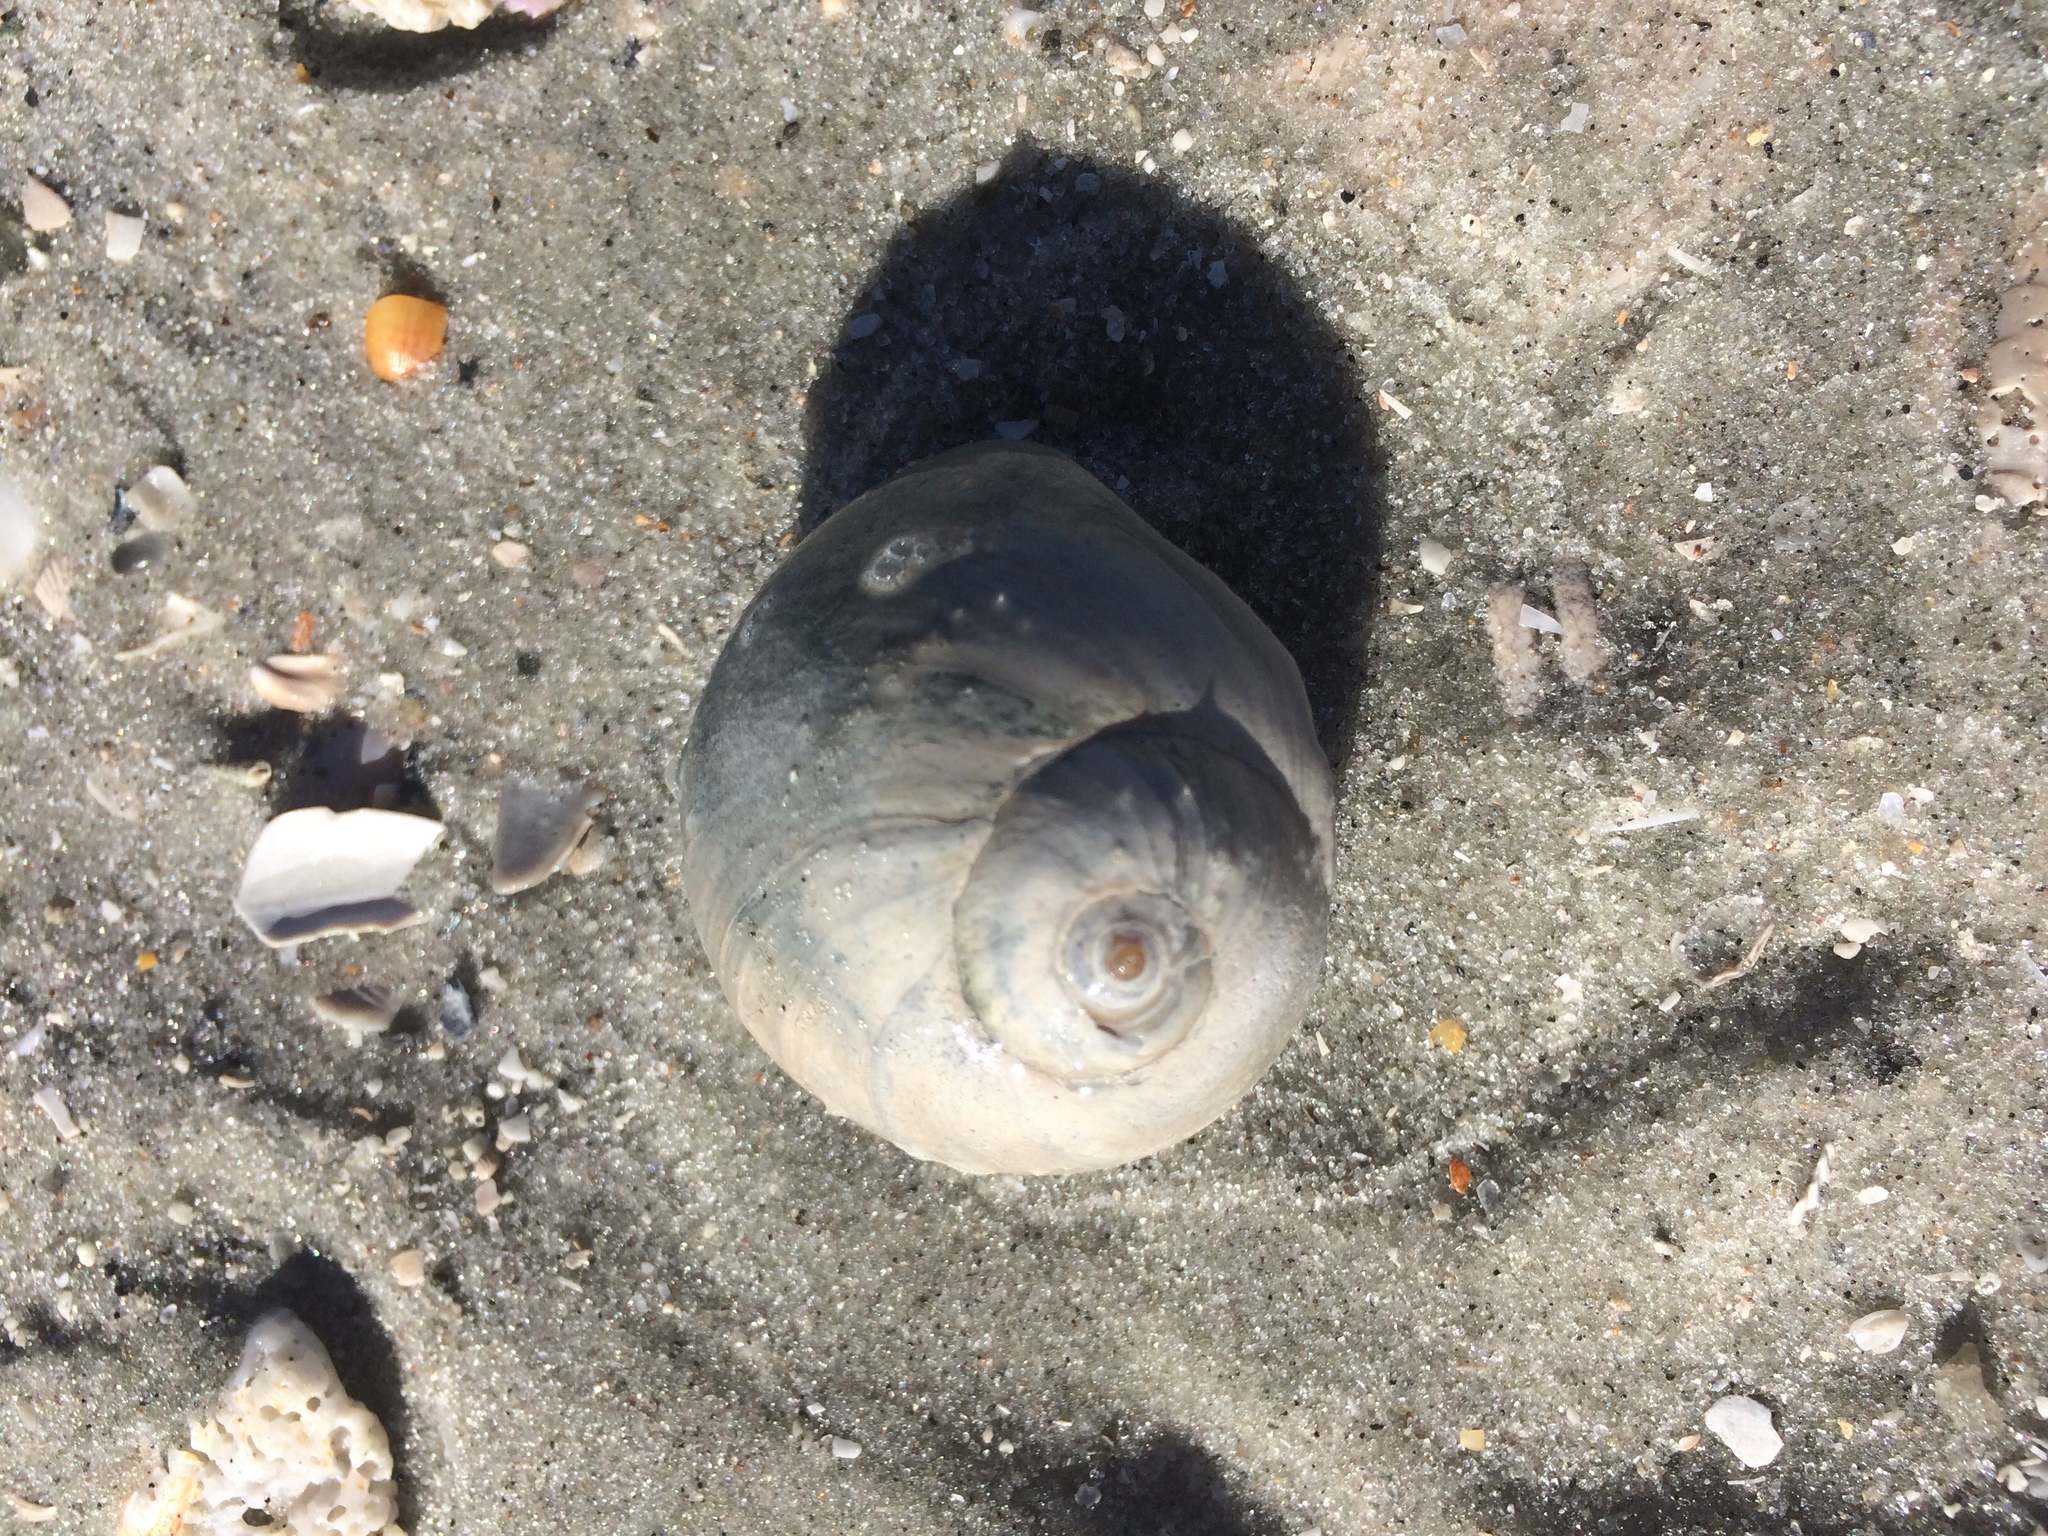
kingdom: Animalia
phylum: Mollusca
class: Gastropoda
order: Littorinimorpha
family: Naticidae
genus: Neverita
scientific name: Neverita duplicata
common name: Lobed moonsnail
